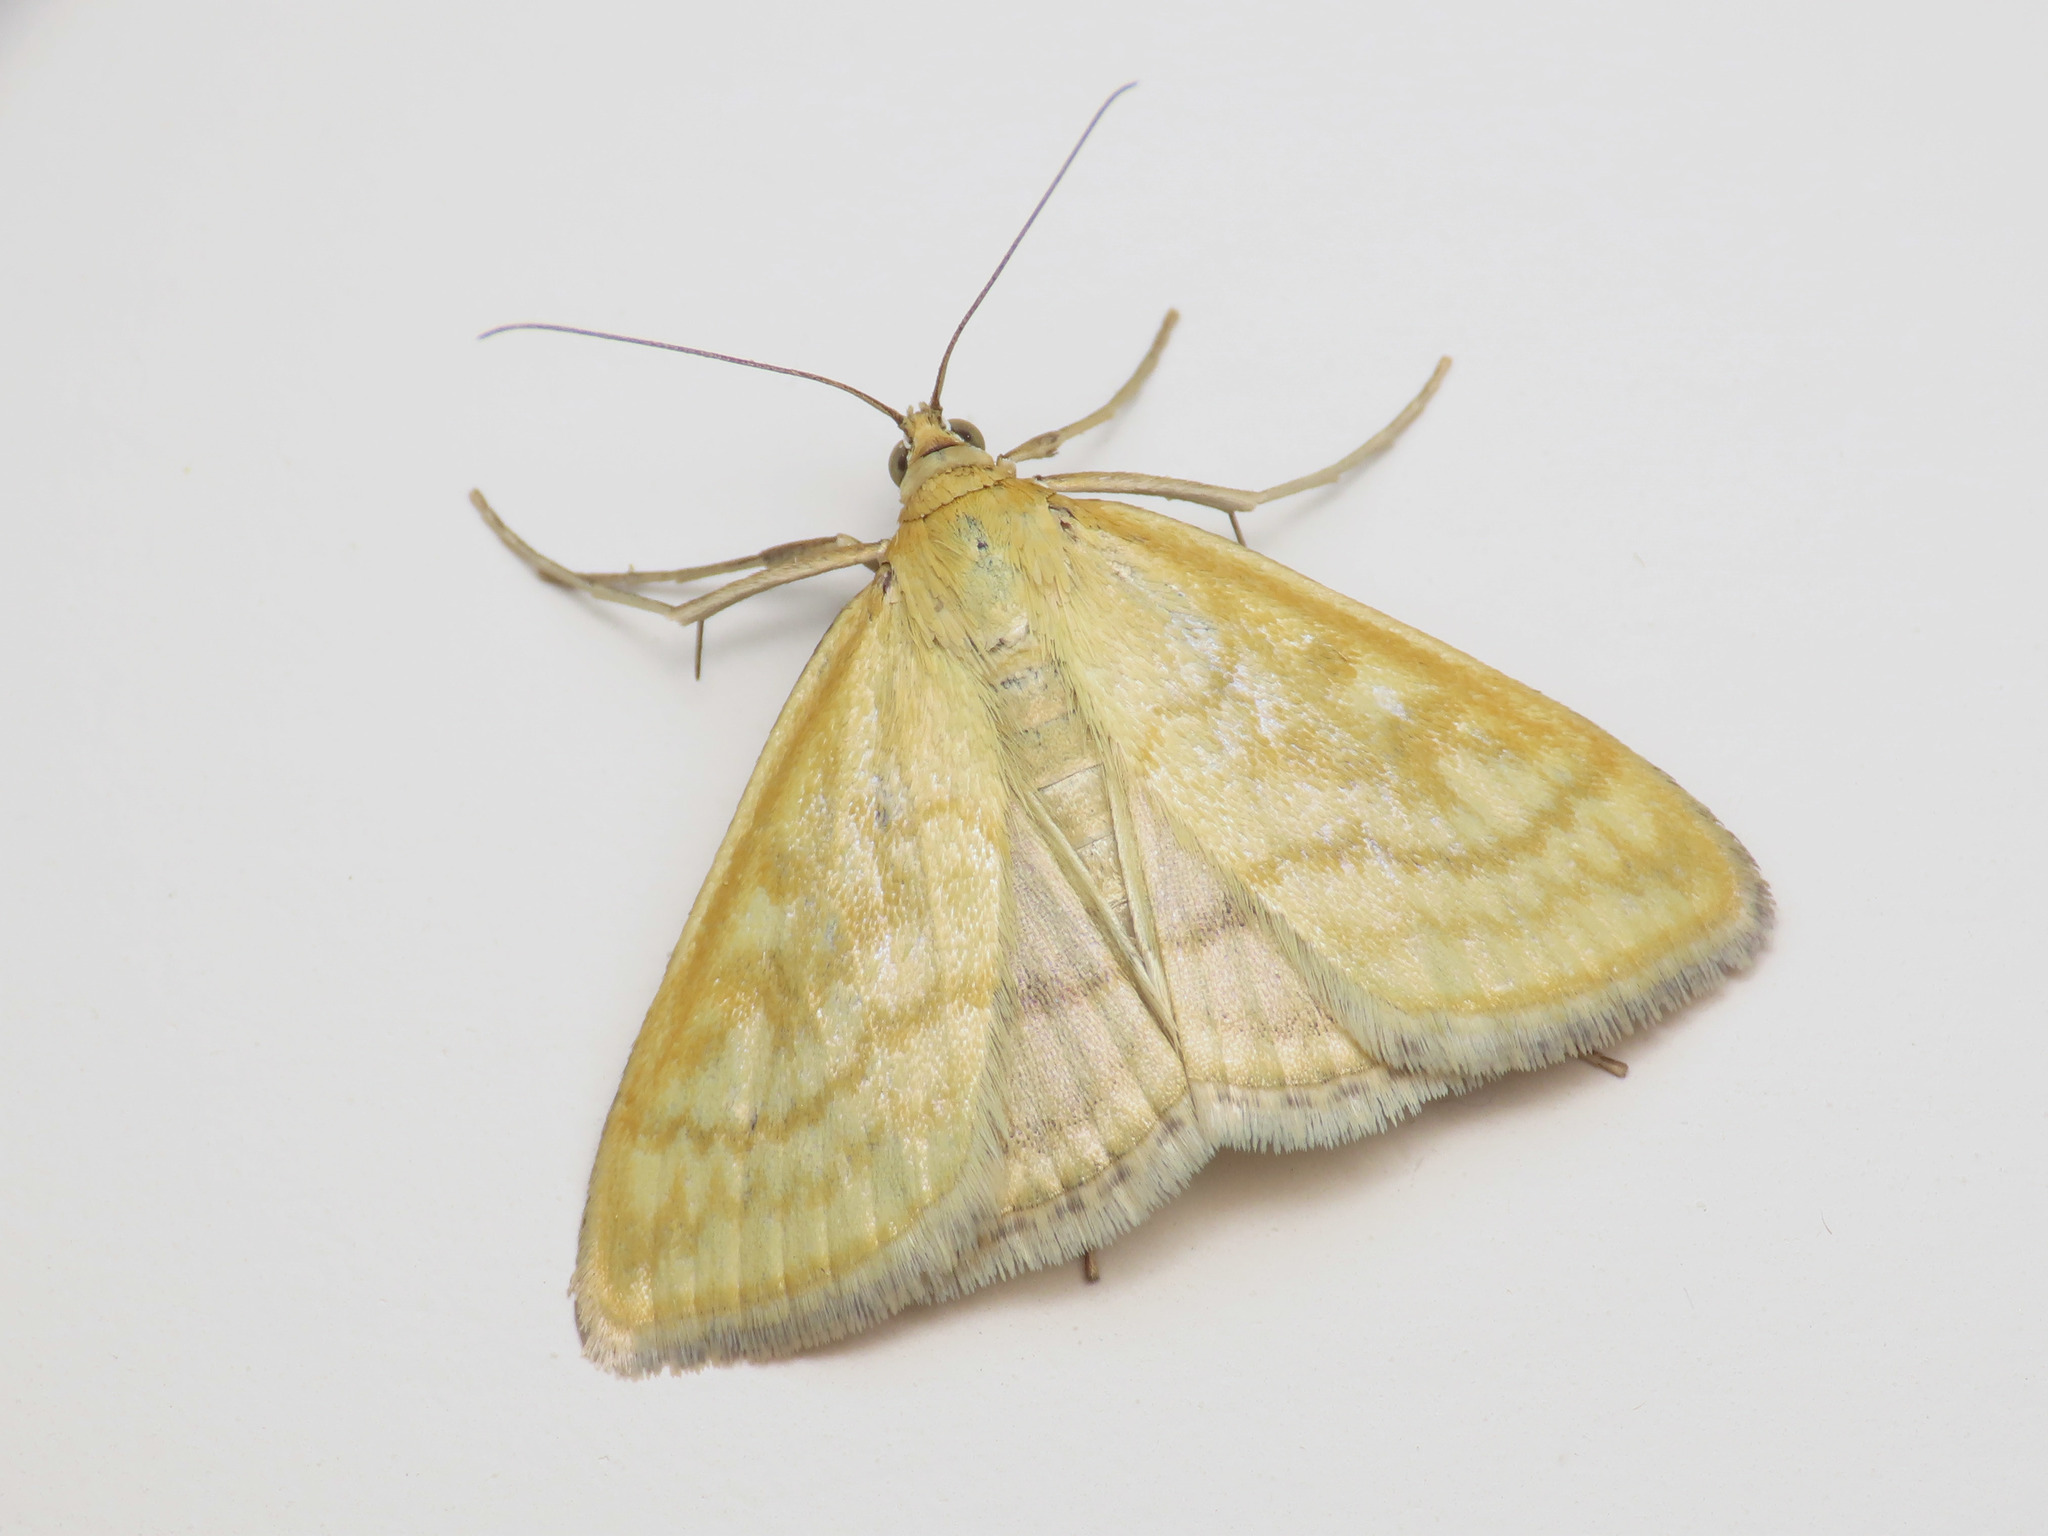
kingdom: Animalia
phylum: Arthropoda
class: Insecta
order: Lepidoptera
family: Crambidae
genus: Sitochroa
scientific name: Sitochroa verticalis
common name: Lesser pearl
